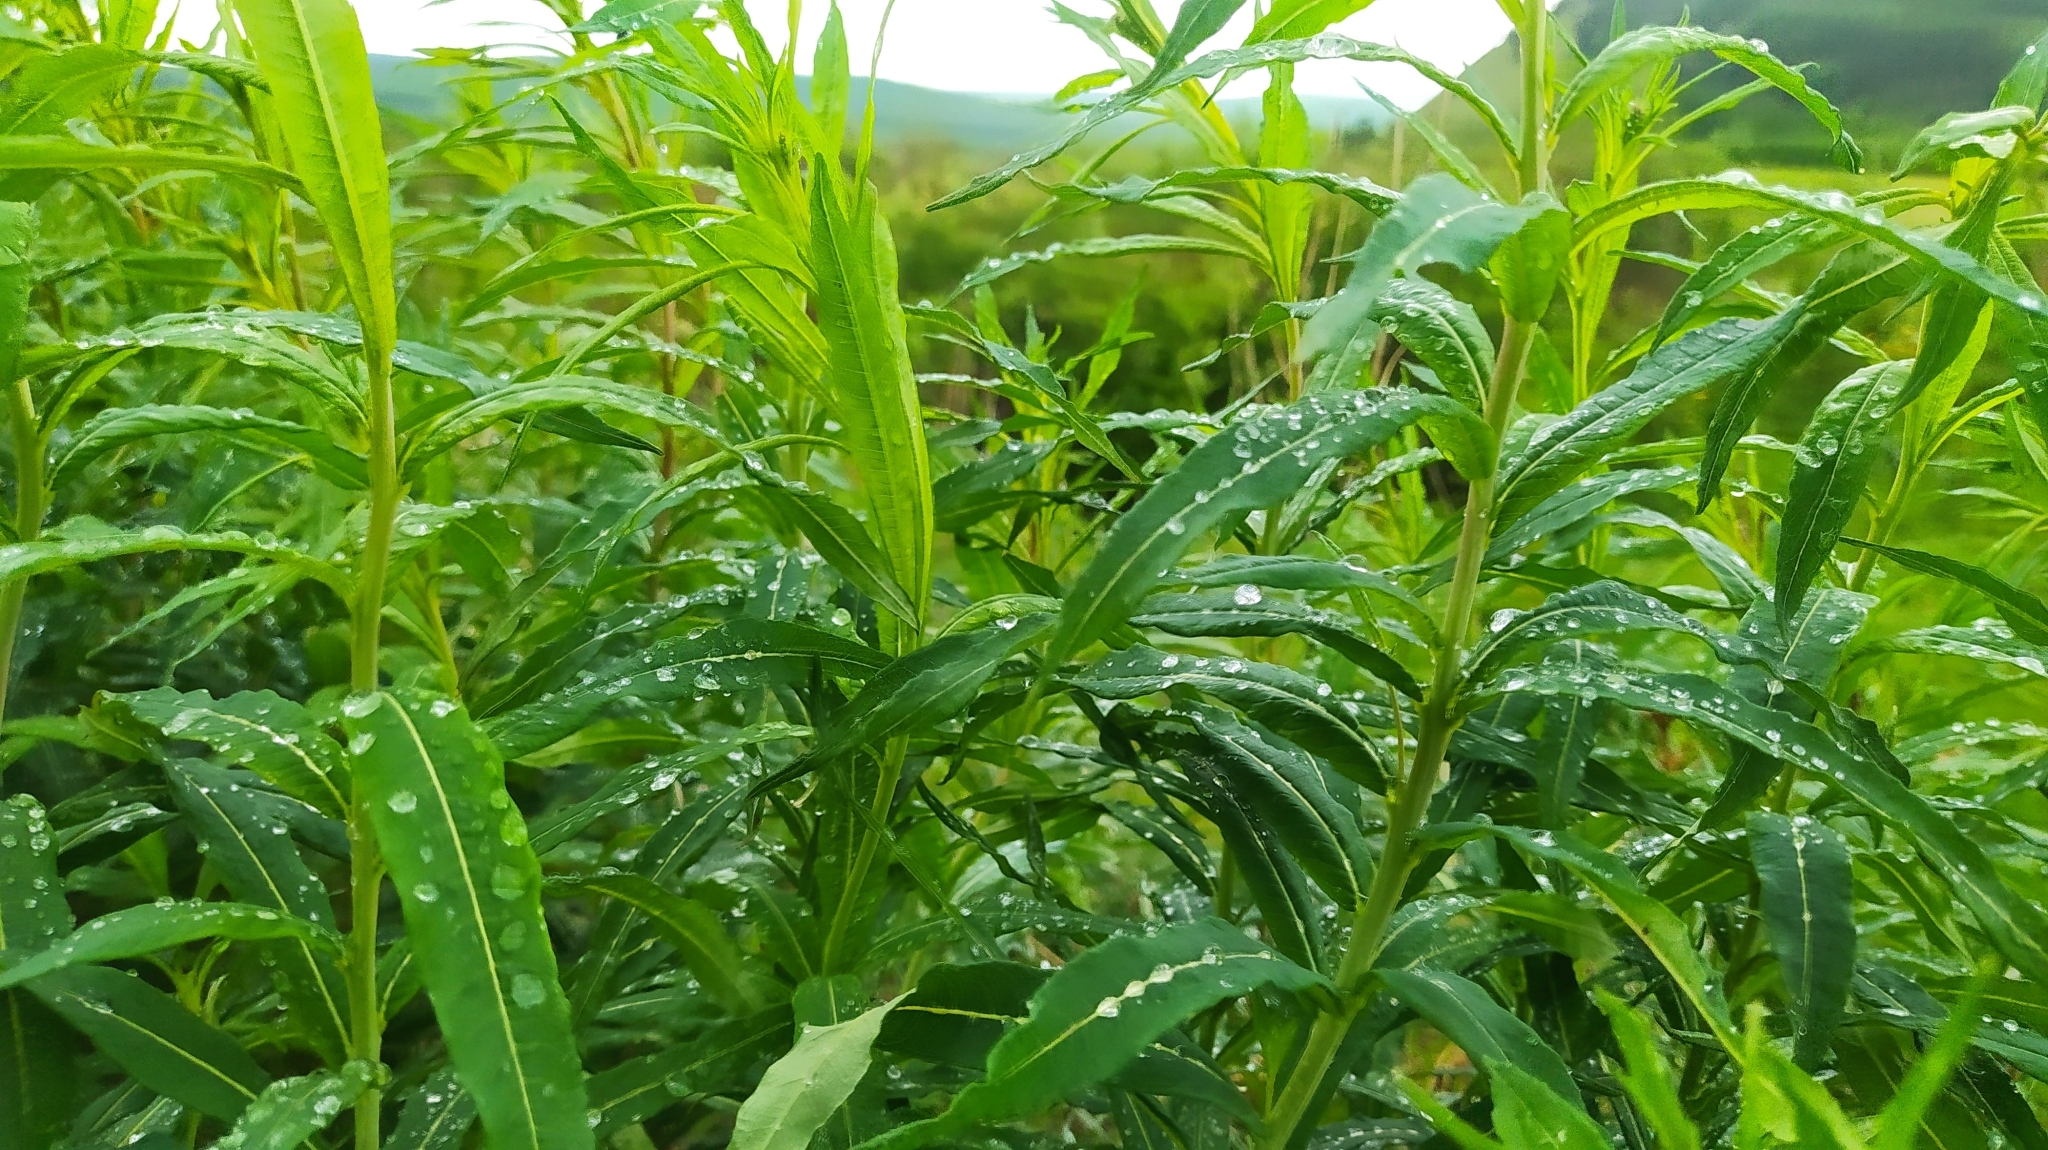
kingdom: Plantae
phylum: Tracheophyta
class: Magnoliopsida
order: Myrtales
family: Onagraceae
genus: Chamaenerion
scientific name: Chamaenerion angustifolium
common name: Fireweed
